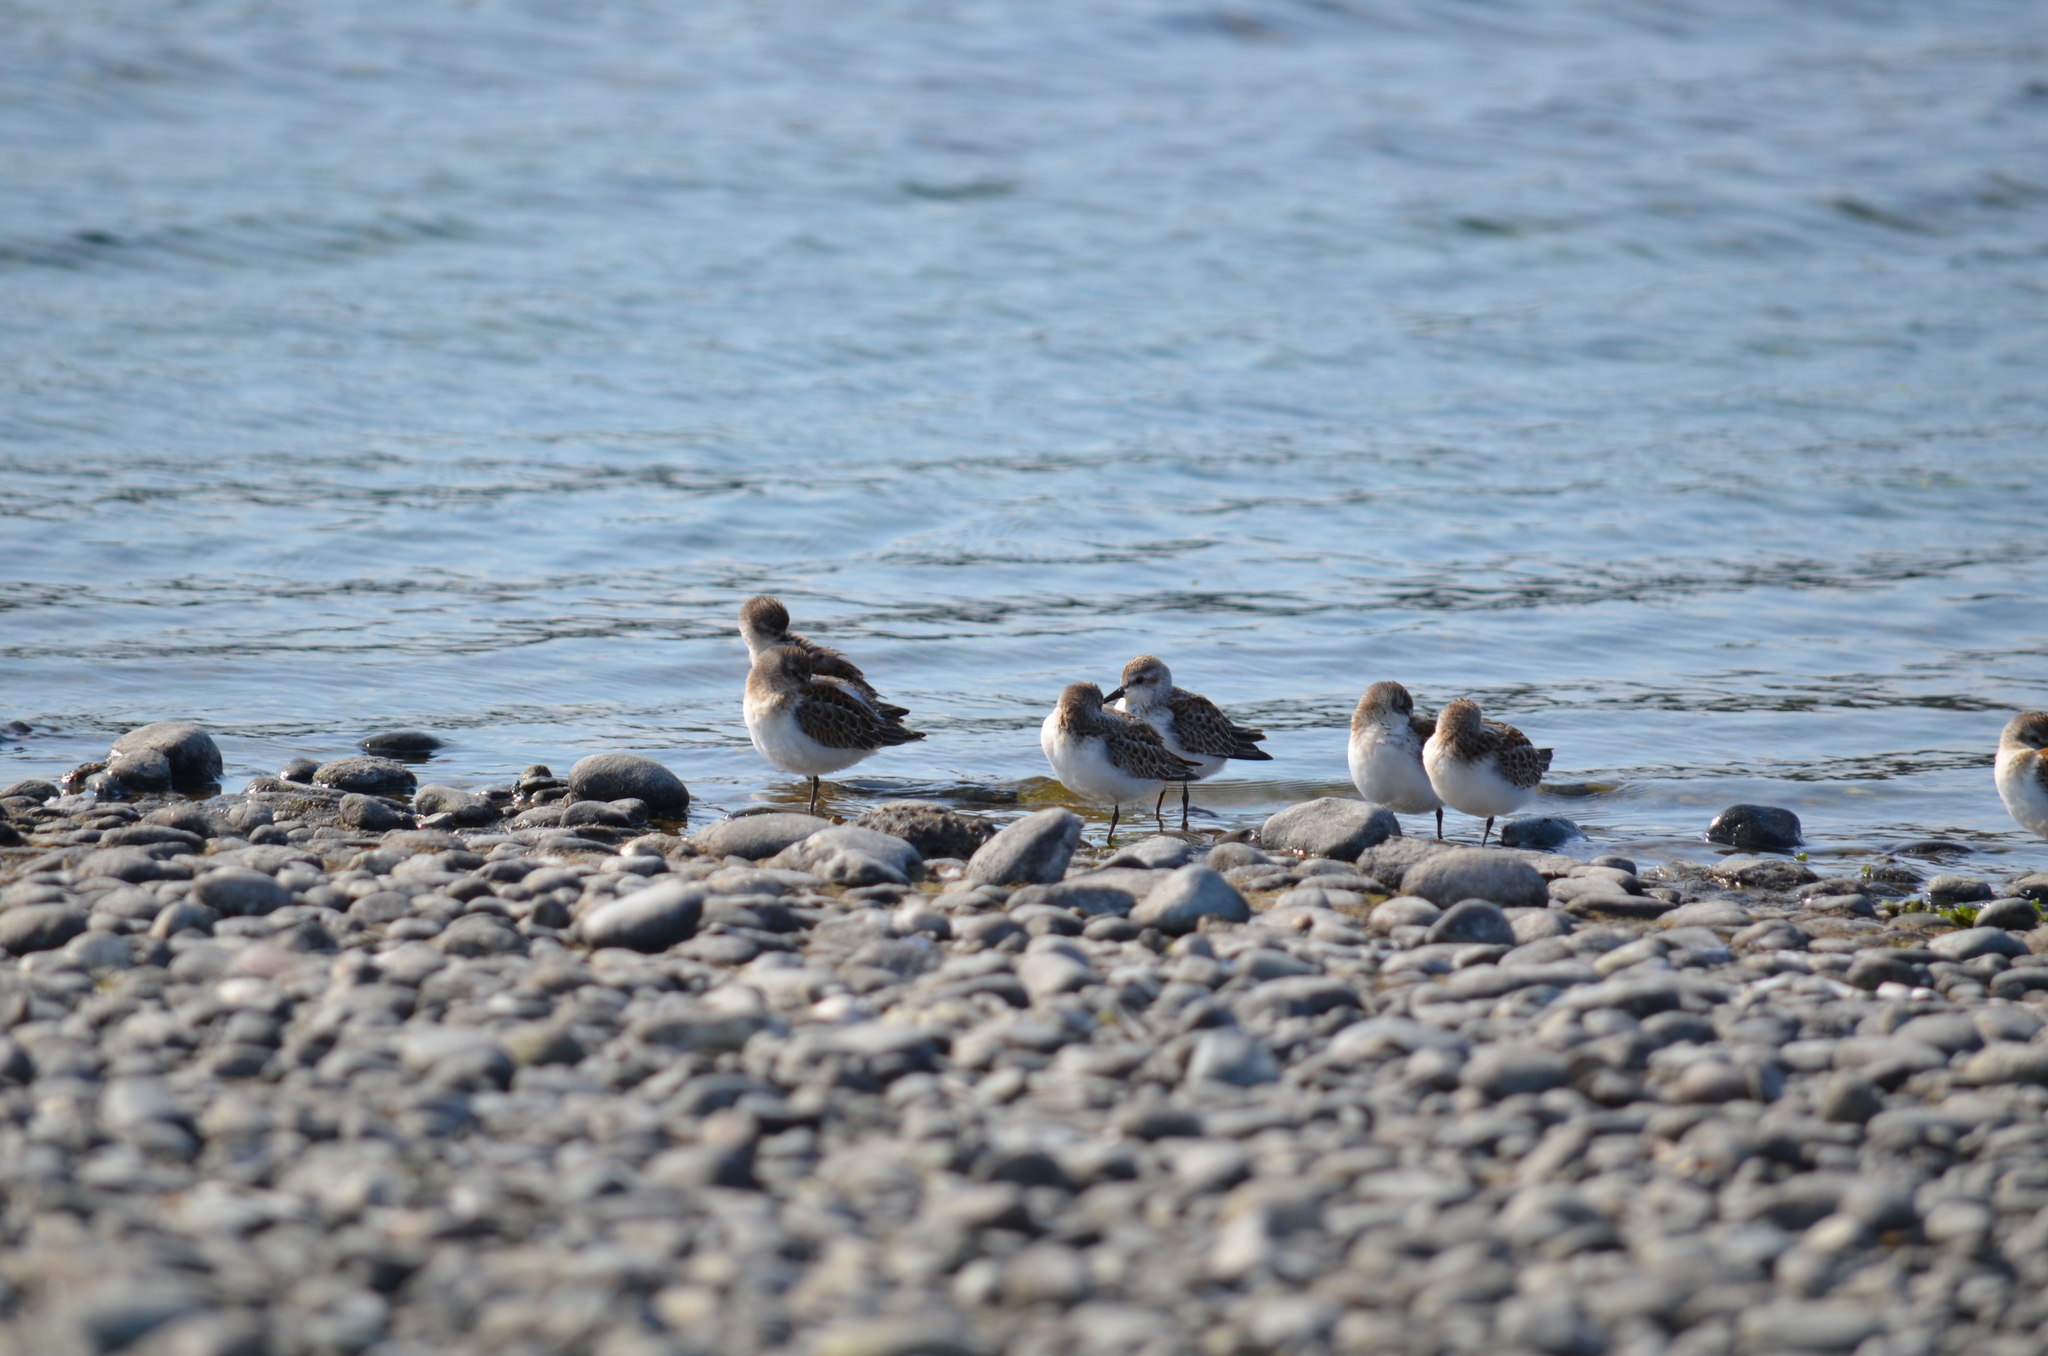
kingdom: Animalia
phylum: Chordata
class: Aves
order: Charadriiformes
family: Scolopacidae
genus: Calidris
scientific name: Calidris mauri
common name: Western sandpiper
